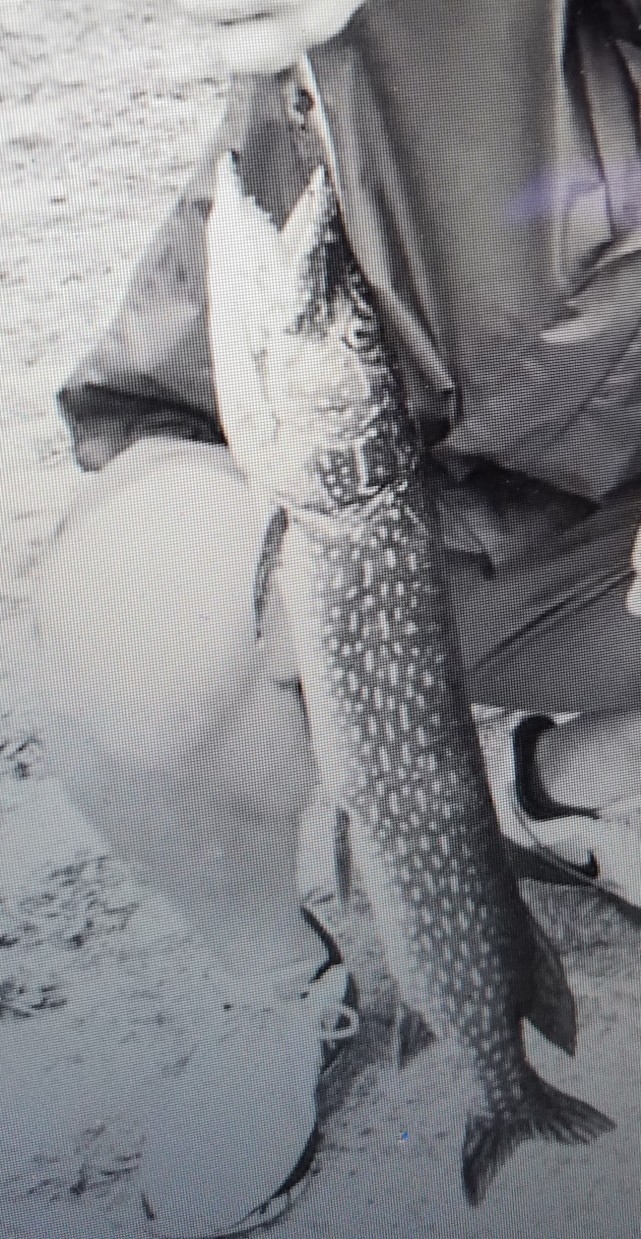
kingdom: Animalia
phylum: Chordata
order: Esociformes
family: Esocidae
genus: Esox
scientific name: Esox lucius
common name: Northern pike
